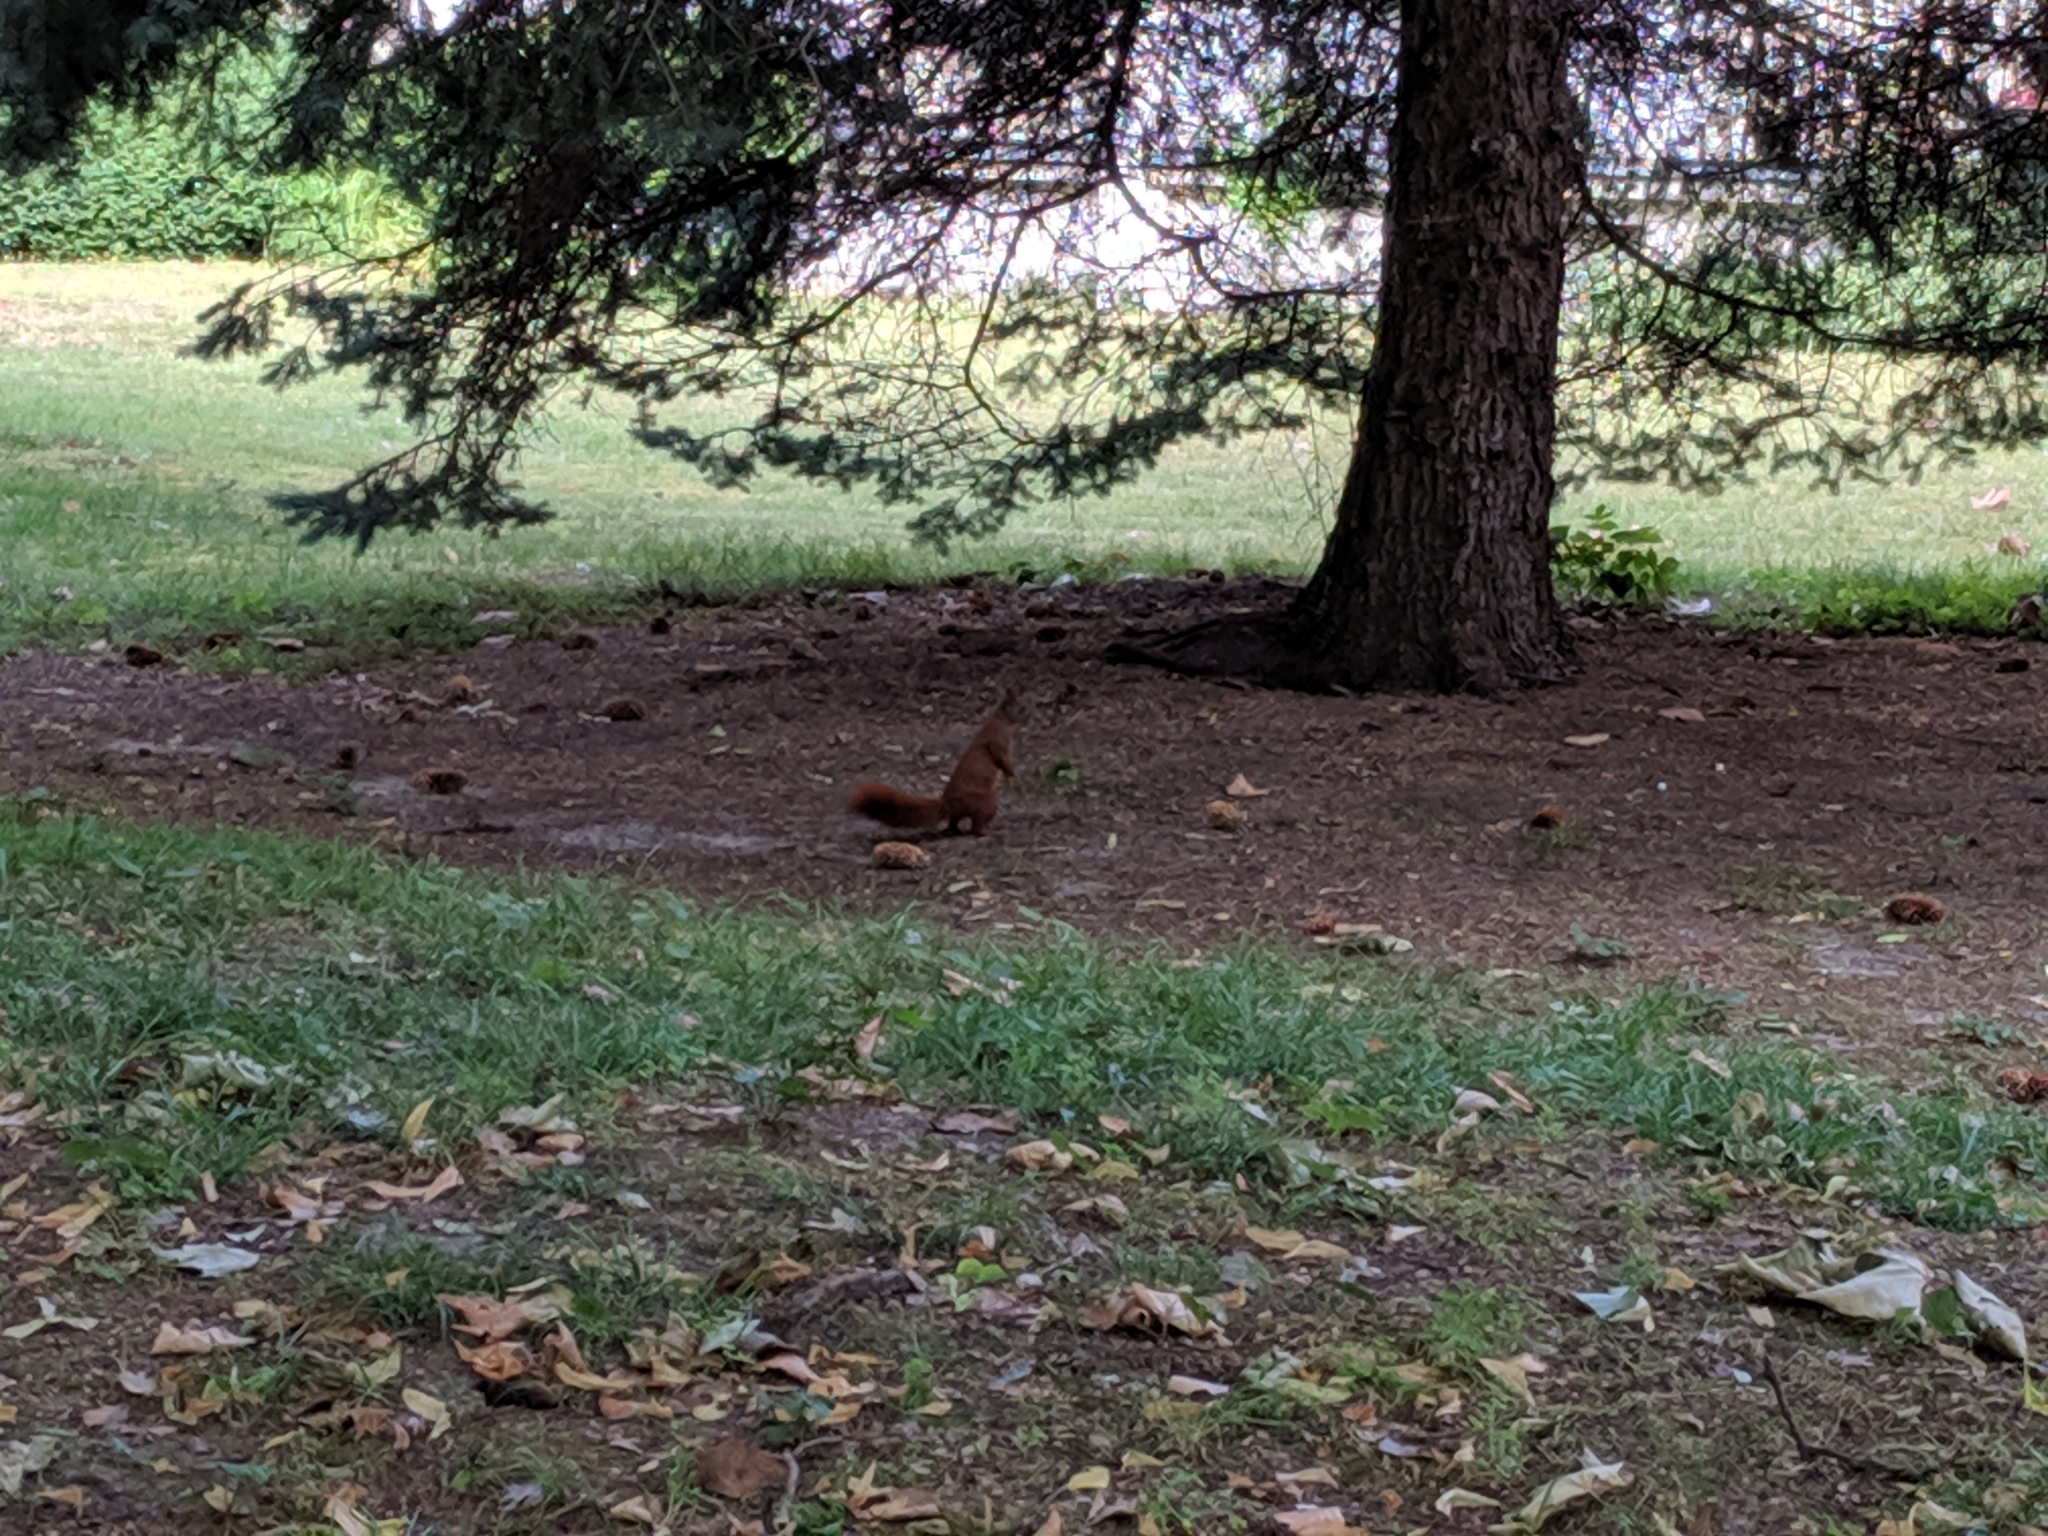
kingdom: Animalia
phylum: Chordata
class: Mammalia
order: Rodentia
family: Sciuridae
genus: Sciurus
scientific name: Sciurus vulgaris
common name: Eurasian red squirrel
